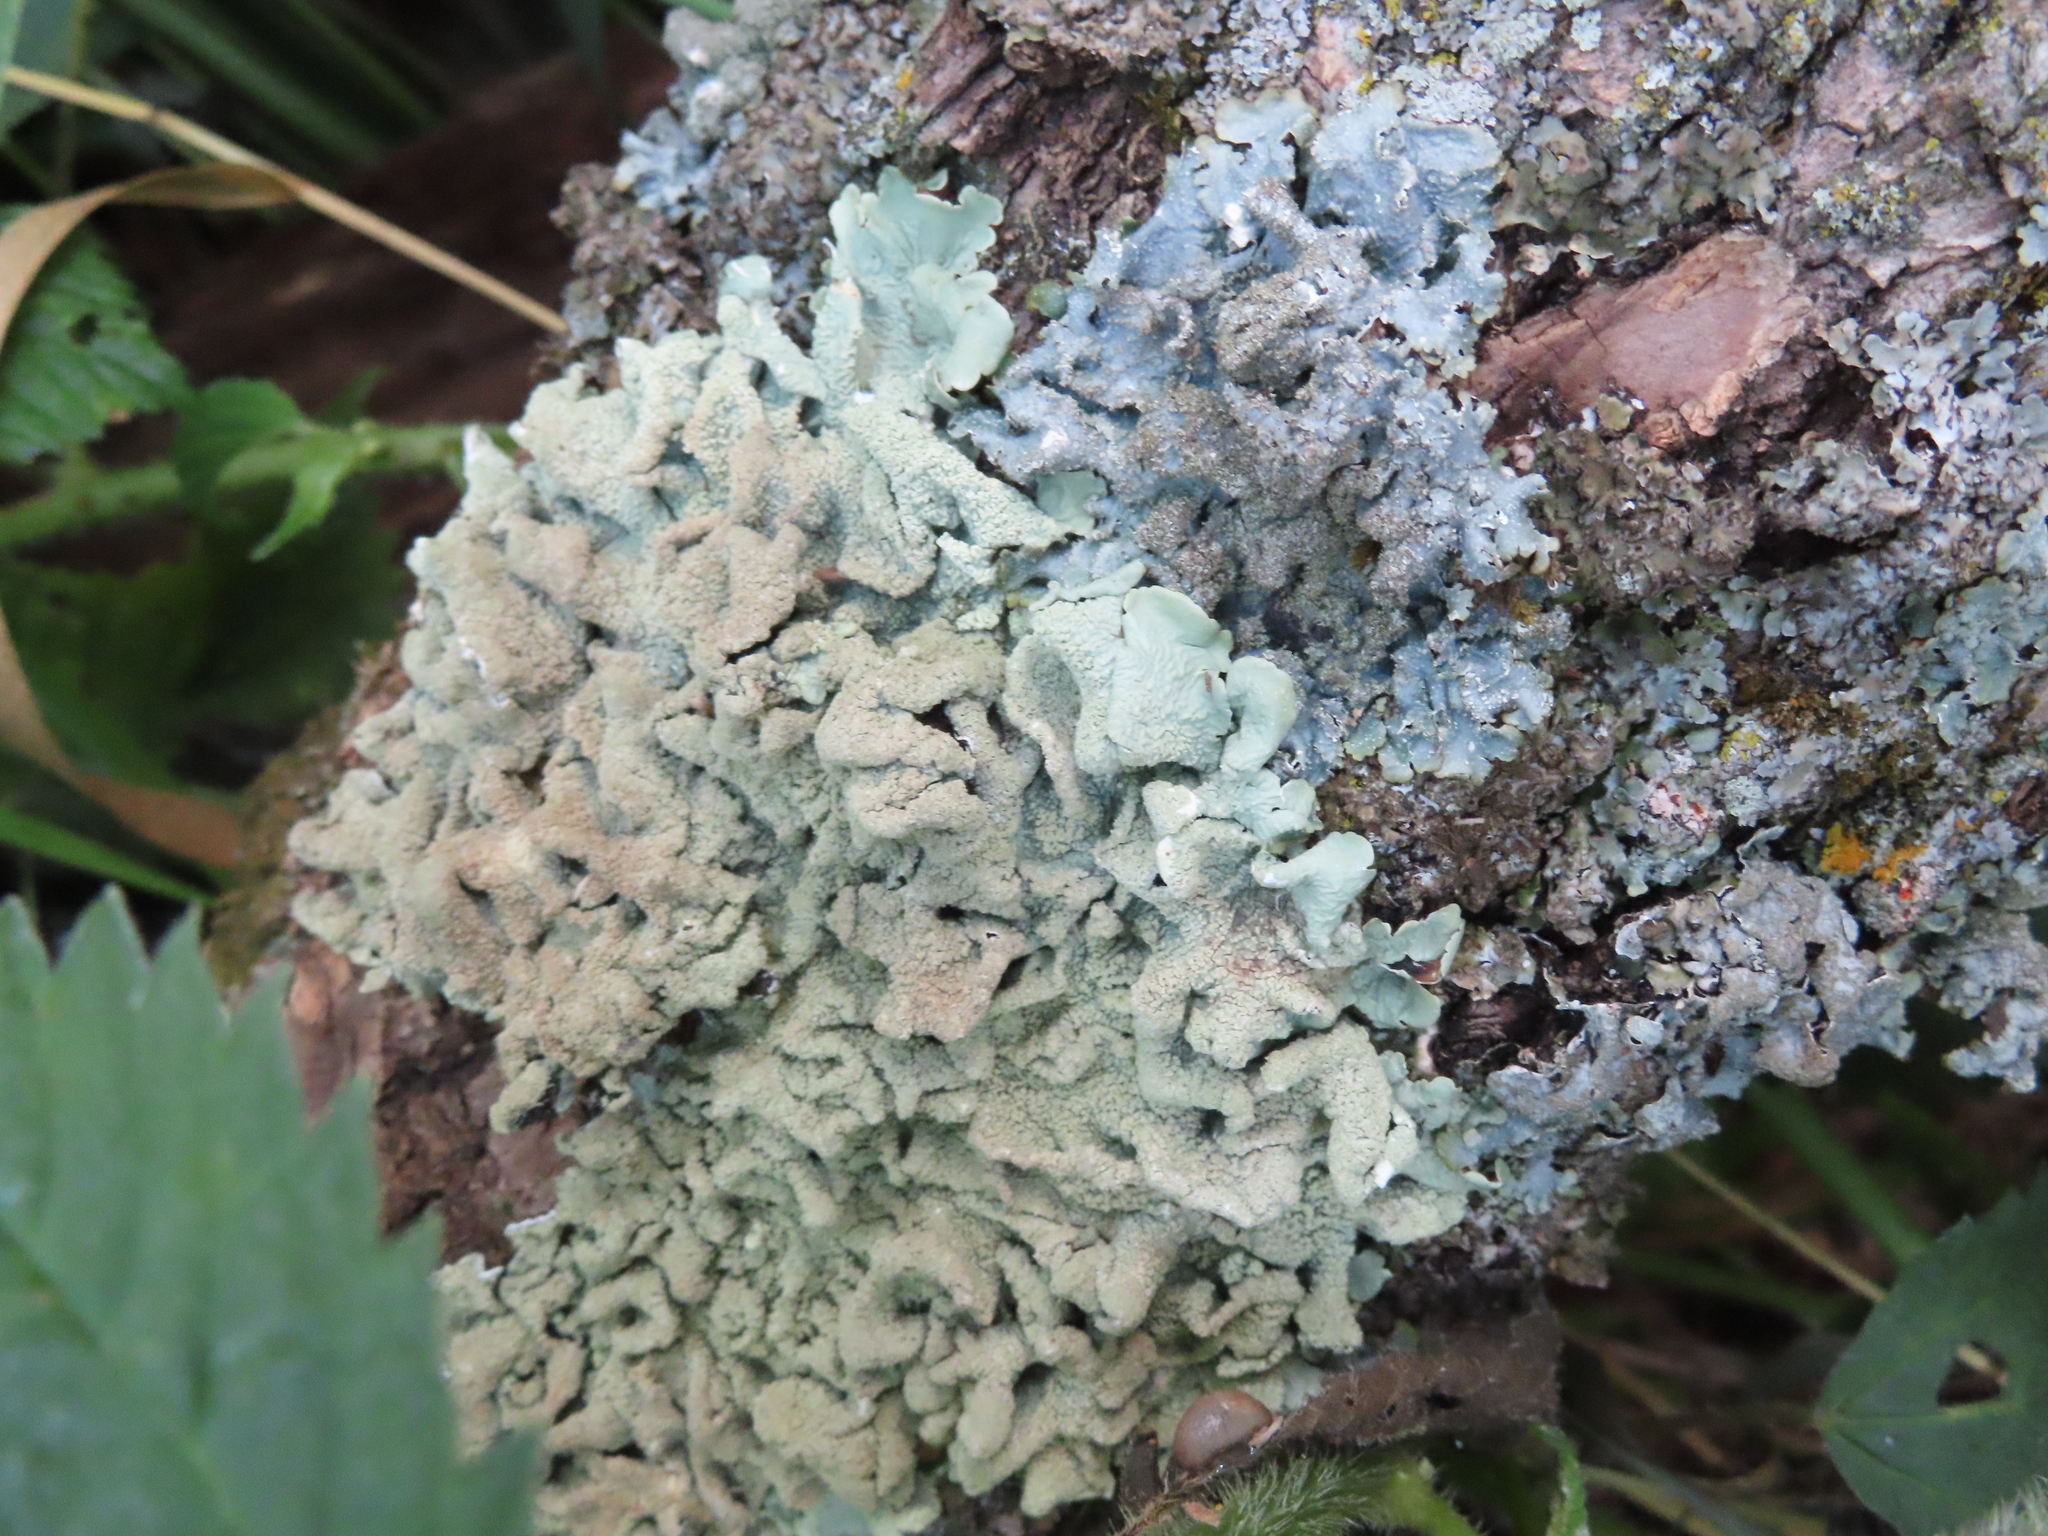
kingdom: Fungi
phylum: Ascomycota
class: Lecanoromycetes
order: Lecanorales
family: Parmeliaceae
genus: Flavoparmelia
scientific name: Flavoparmelia caperata
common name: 40-mile per hour lichen
